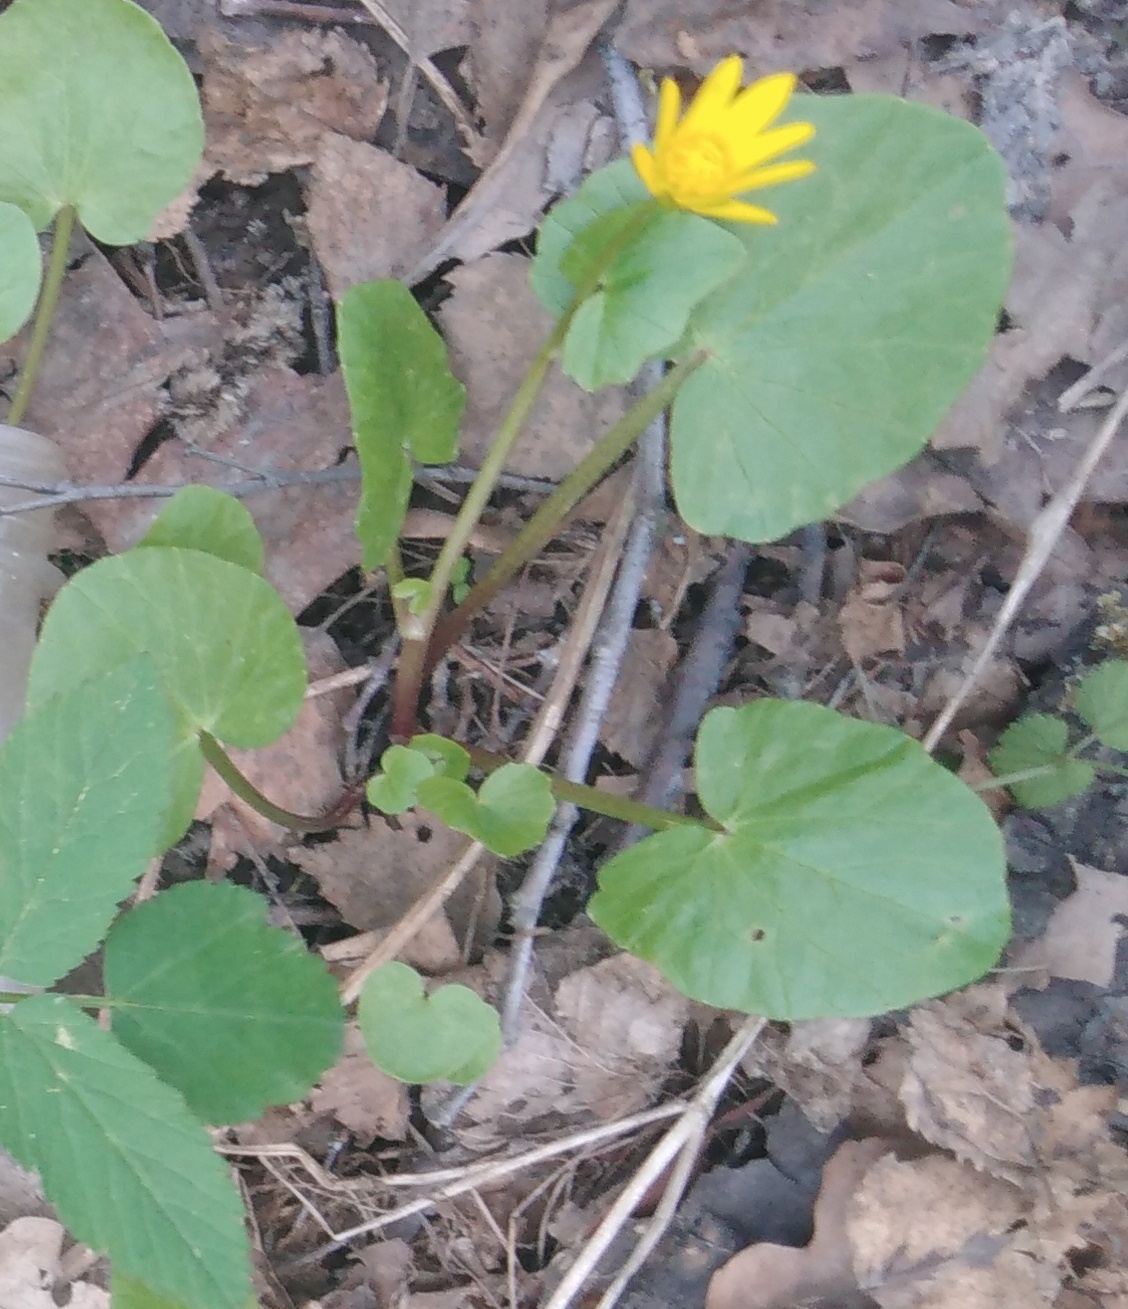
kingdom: Plantae
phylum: Tracheophyta
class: Magnoliopsida
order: Ranunculales
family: Ranunculaceae
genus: Ficaria
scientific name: Ficaria verna
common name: Lesser celandine
